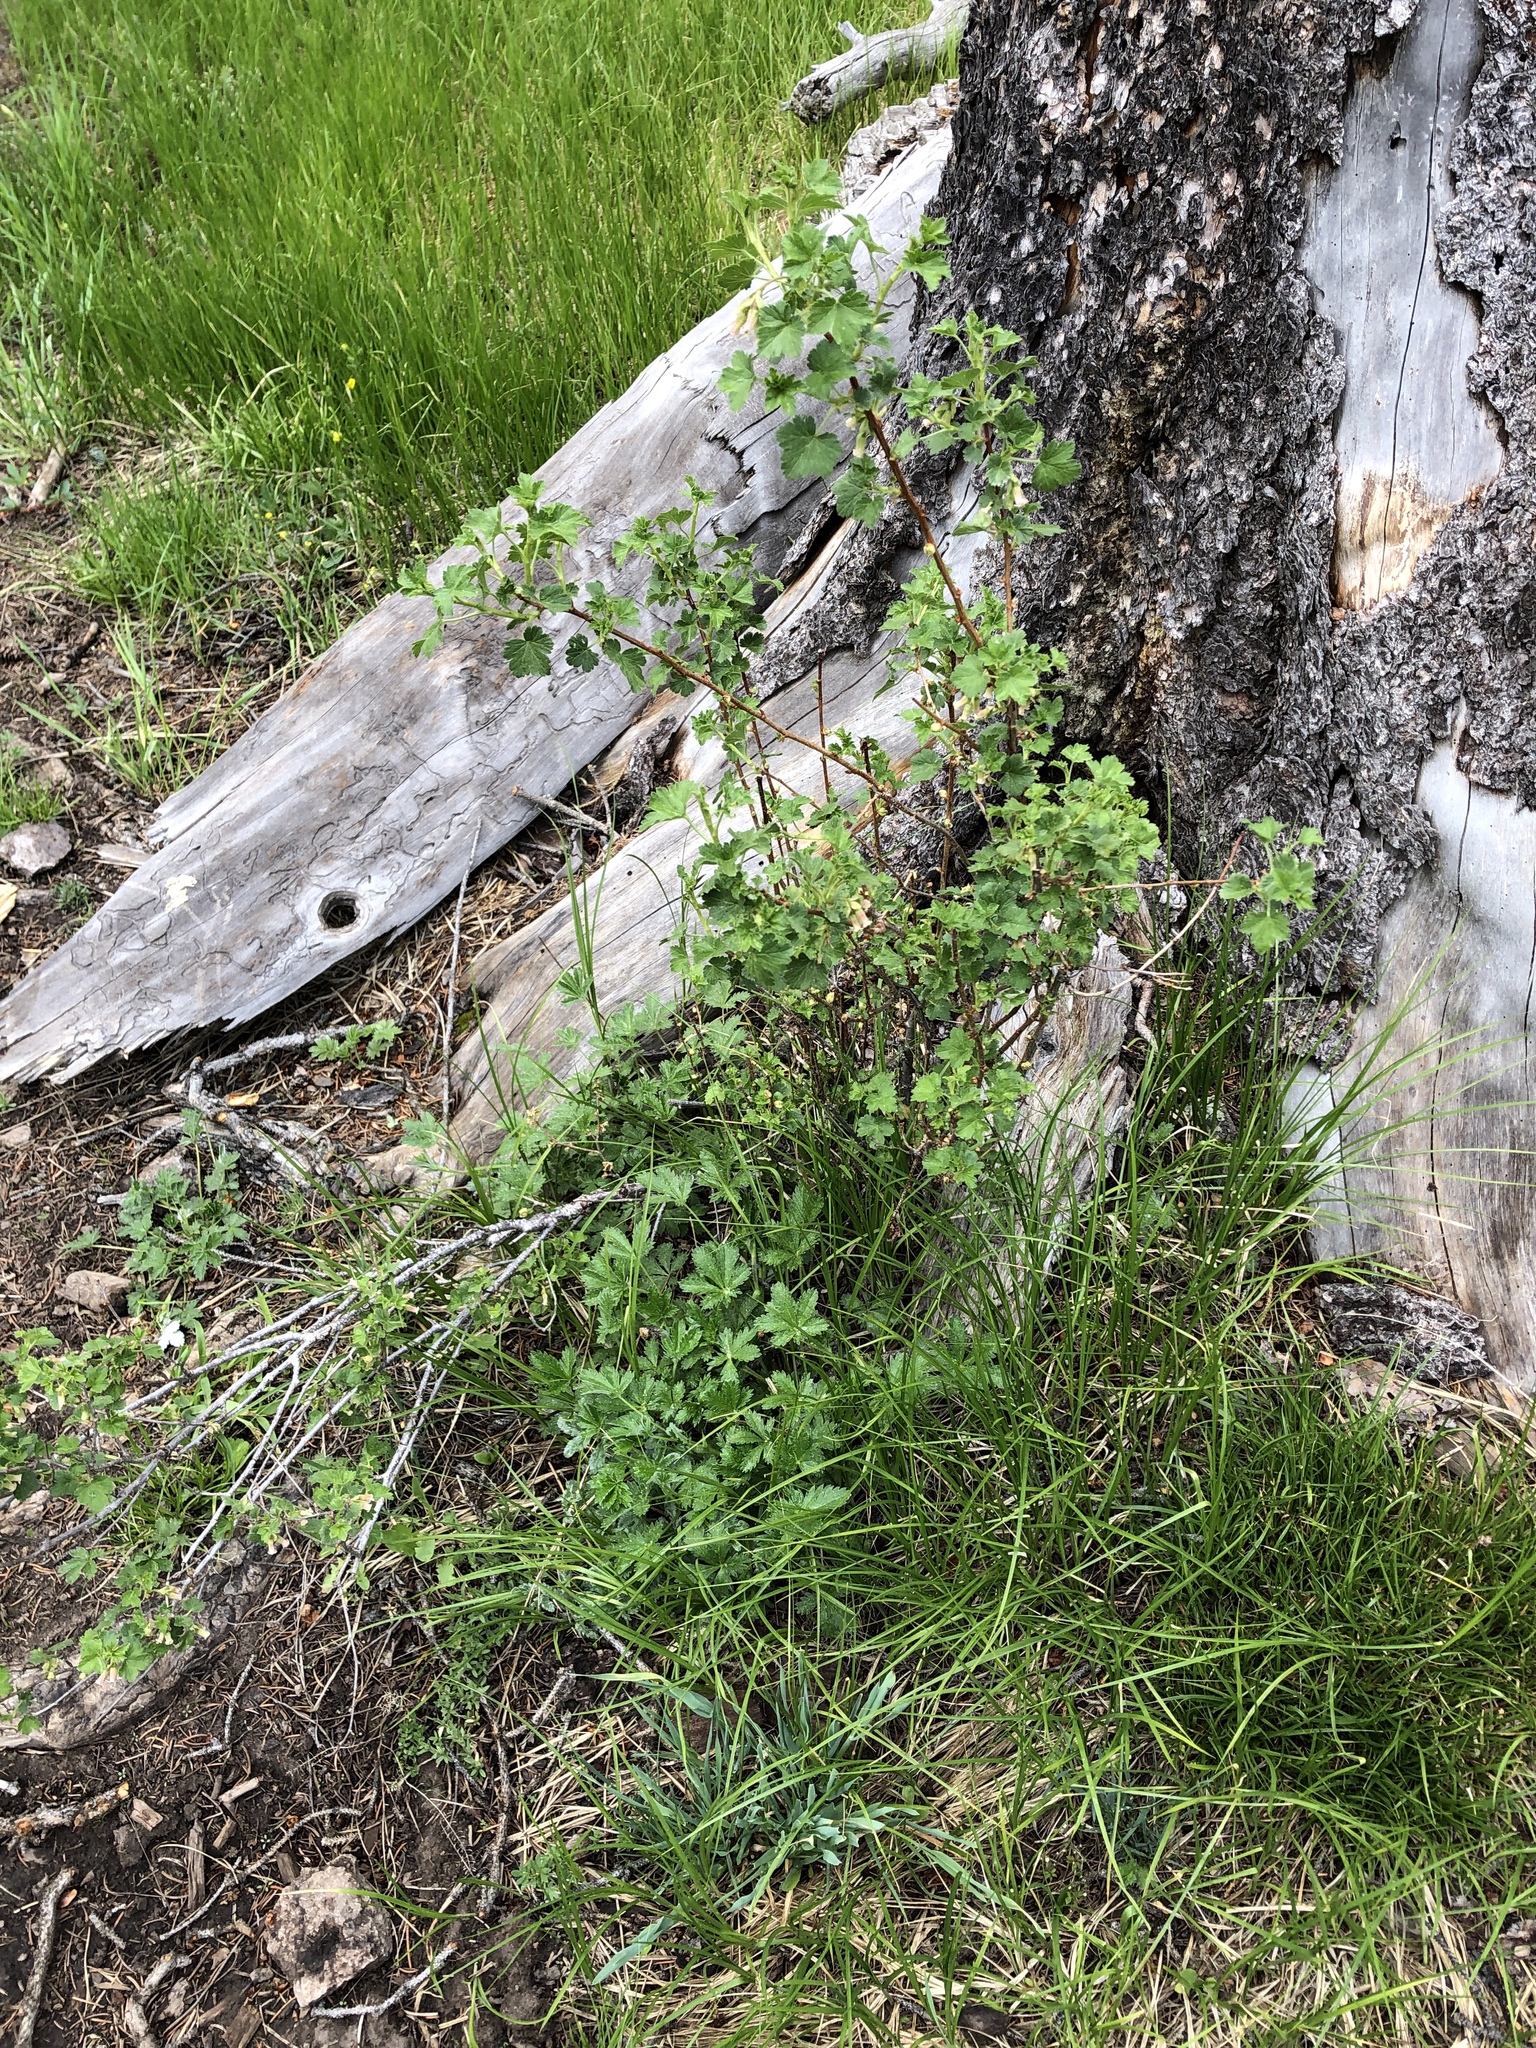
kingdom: Plantae
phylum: Tracheophyta
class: Magnoliopsida
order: Saxifragales
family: Grossulariaceae
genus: Ribes
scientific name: Ribes cereum
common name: Wax currant
